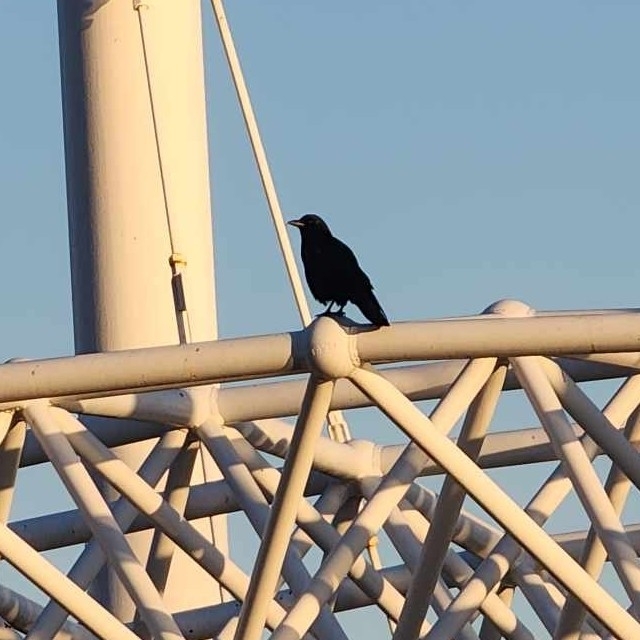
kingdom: Animalia
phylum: Chordata
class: Aves
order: Passeriformes
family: Corvidae
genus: Corvus
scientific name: Corvus brachyrhynchos
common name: American crow
